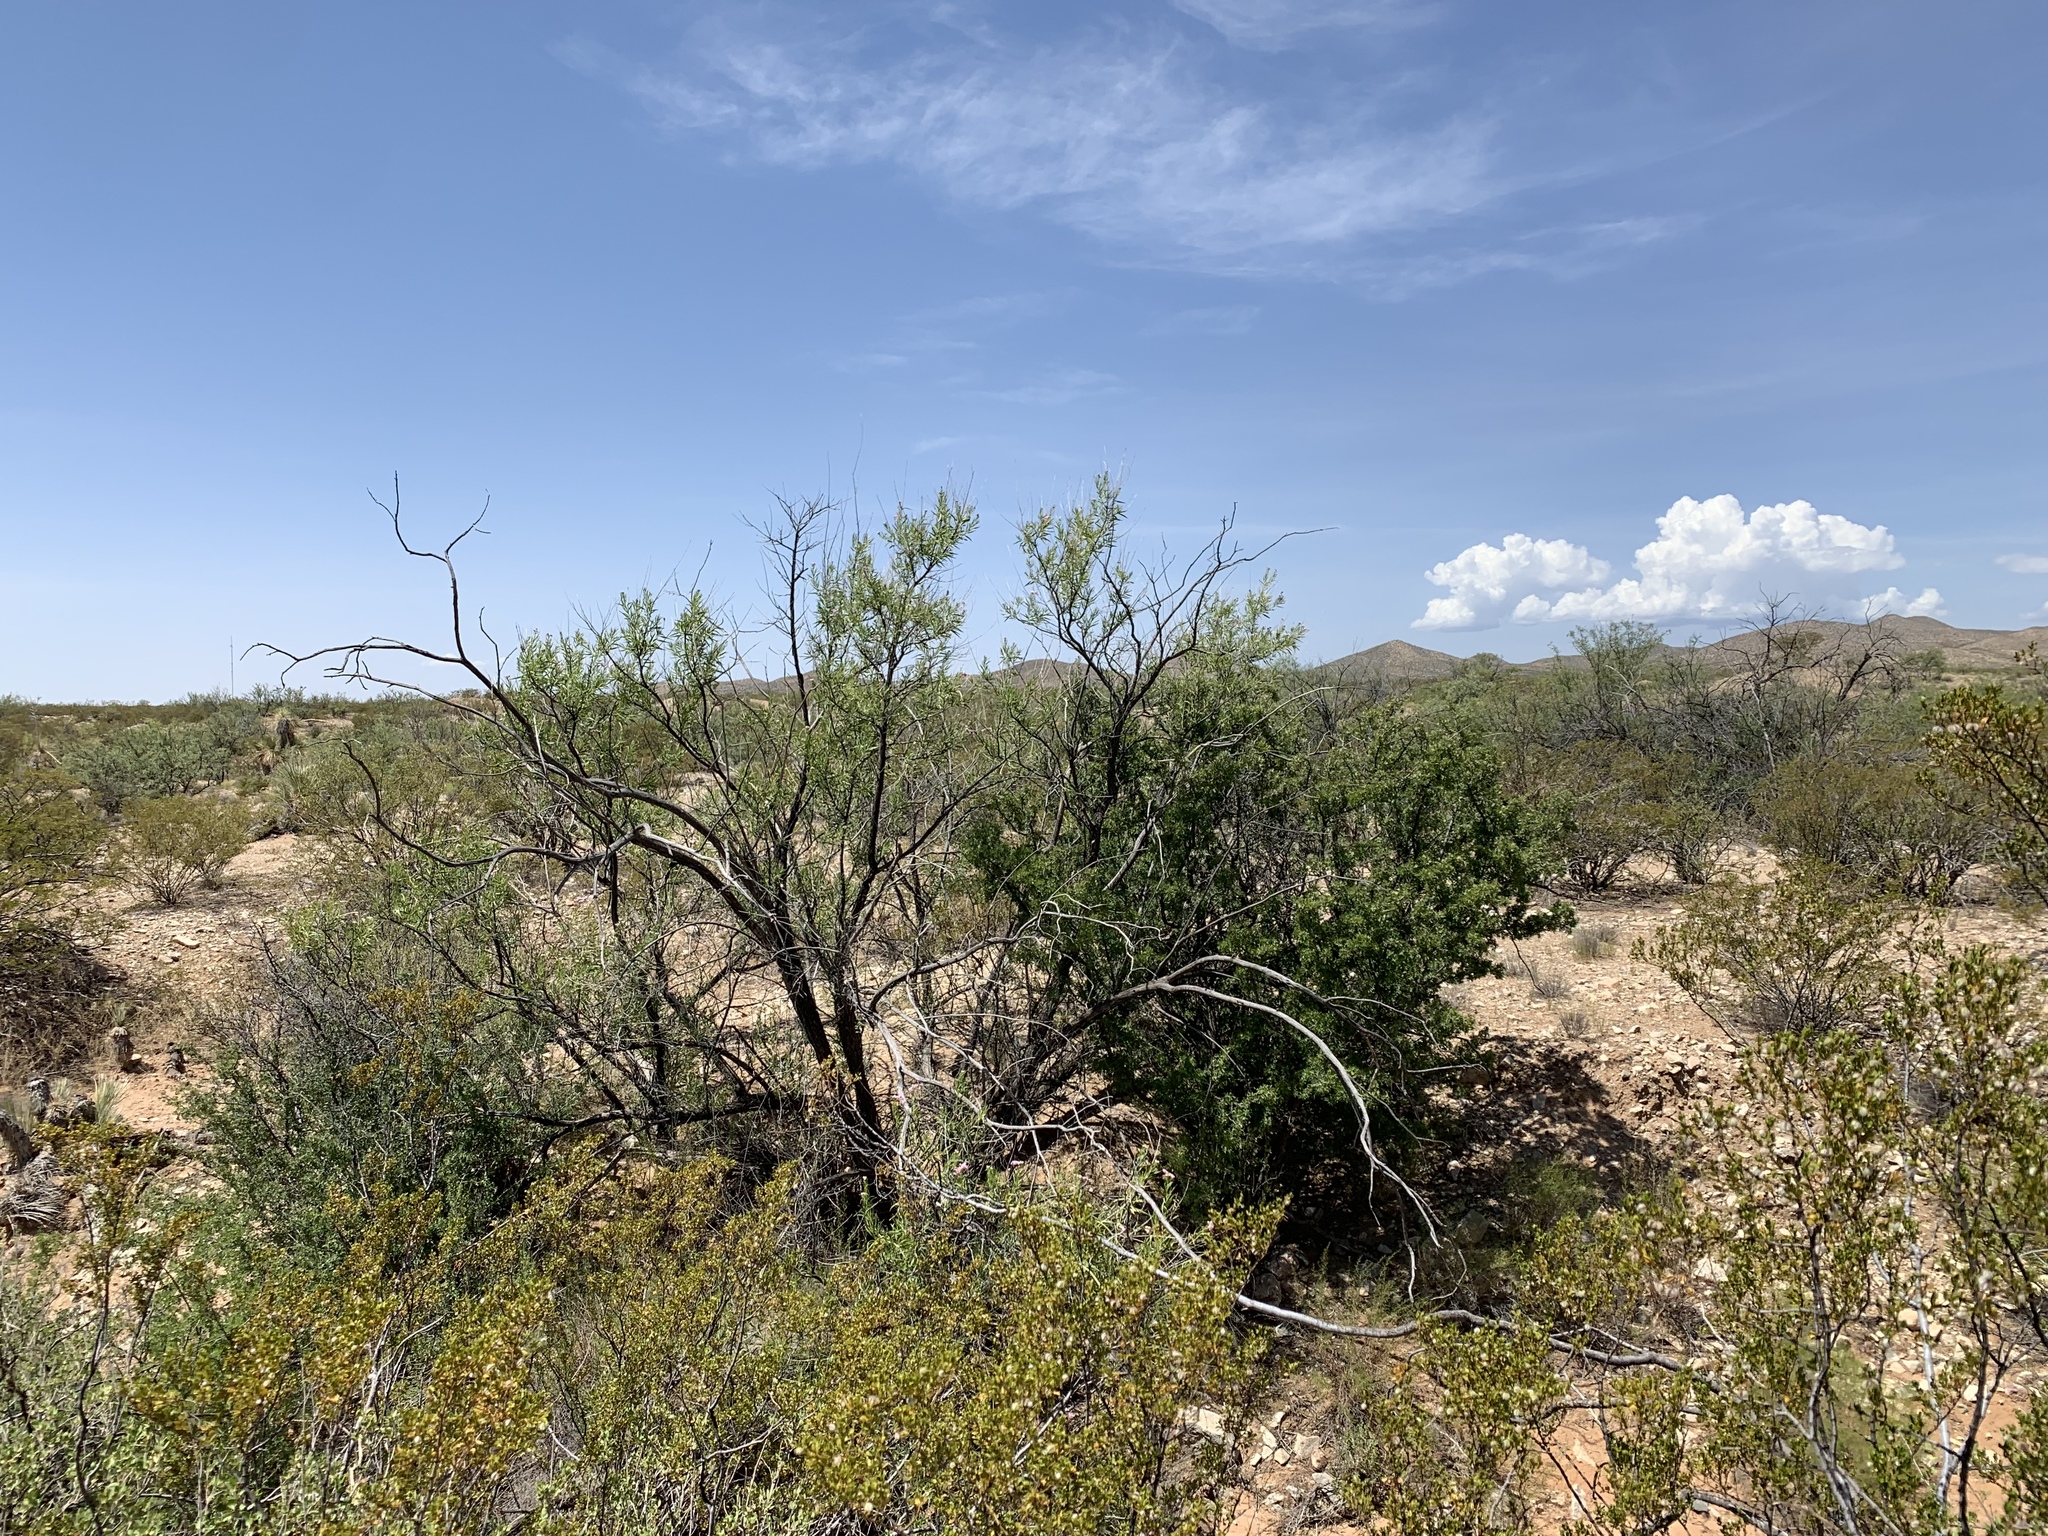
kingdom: Plantae
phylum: Tracheophyta
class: Magnoliopsida
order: Lamiales
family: Bignoniaceae
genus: Chilopsis
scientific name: Chilopsis linearis
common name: Desert-willow
